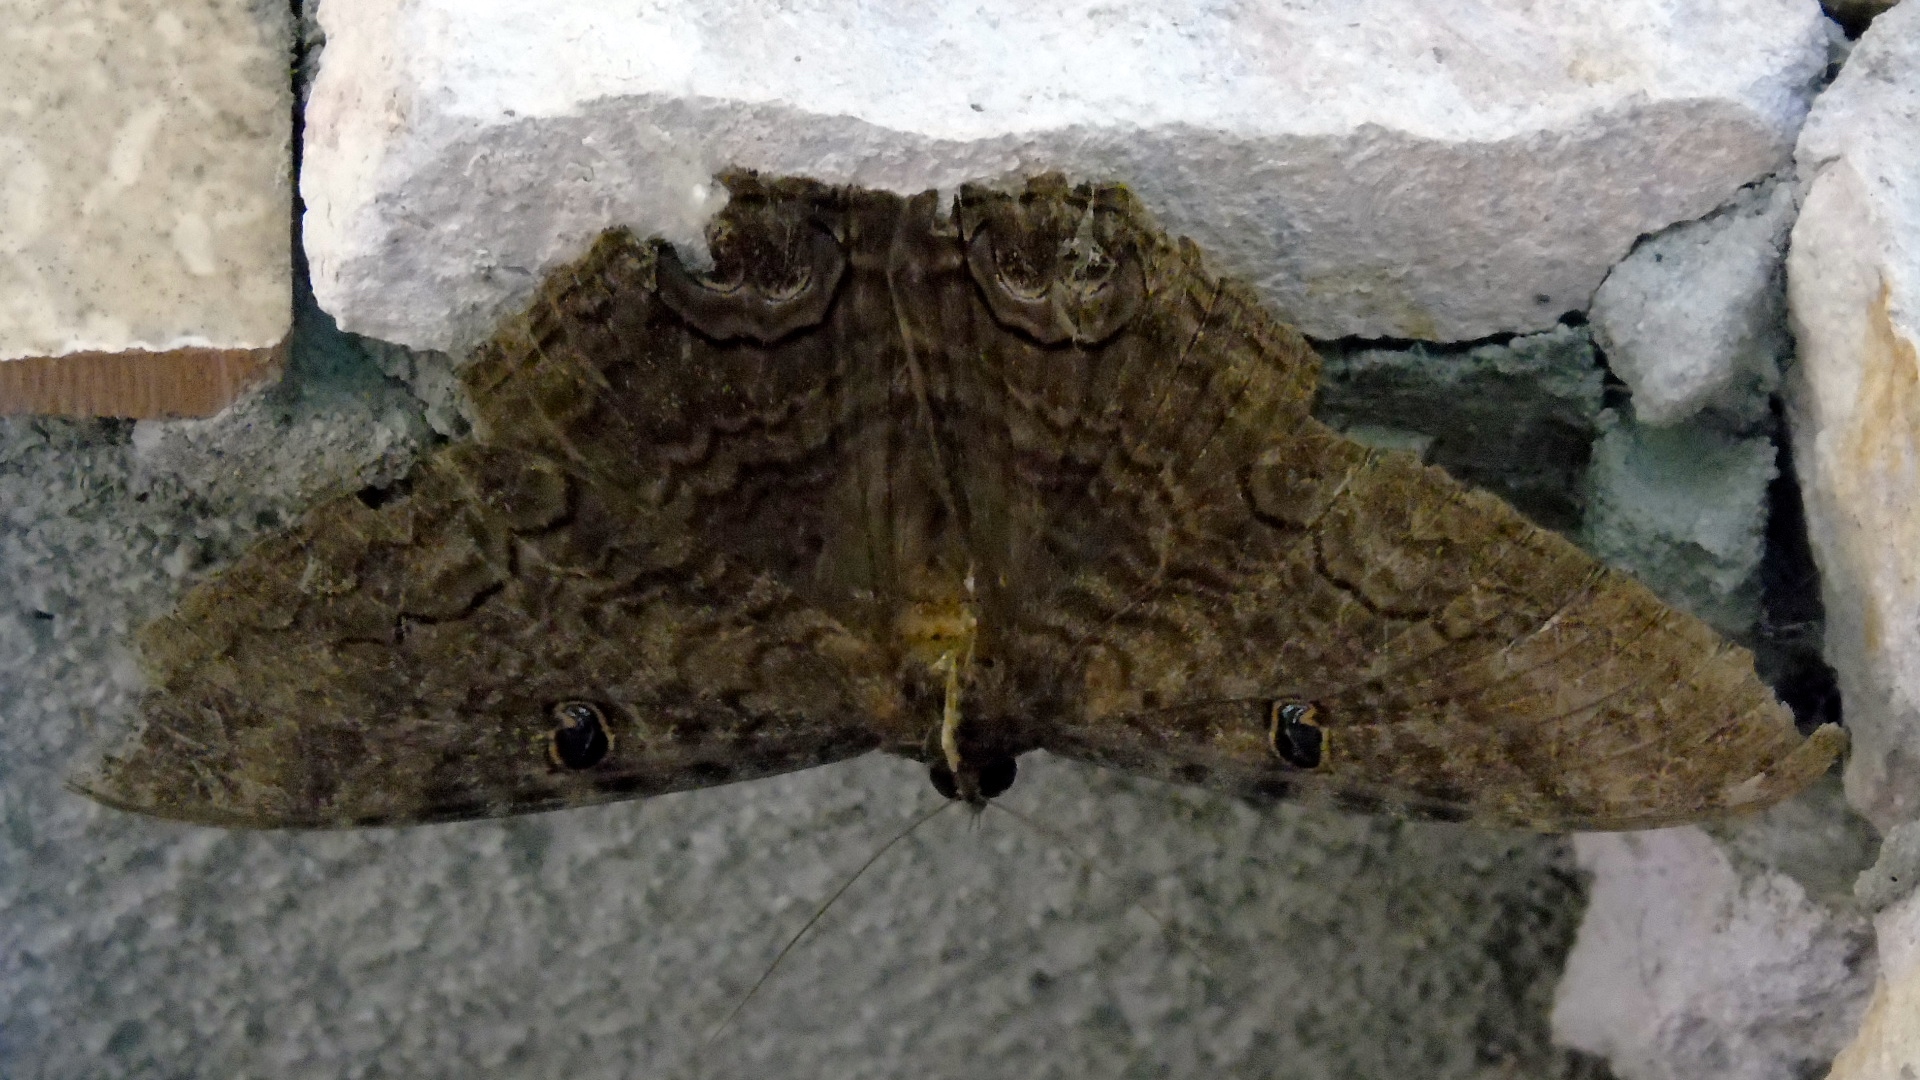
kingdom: Animalia
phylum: Arthropoda
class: Insecta
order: Lepidoptera
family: Erebidae
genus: Ascalapha
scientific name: Ascalapha odorata
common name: Black witch
